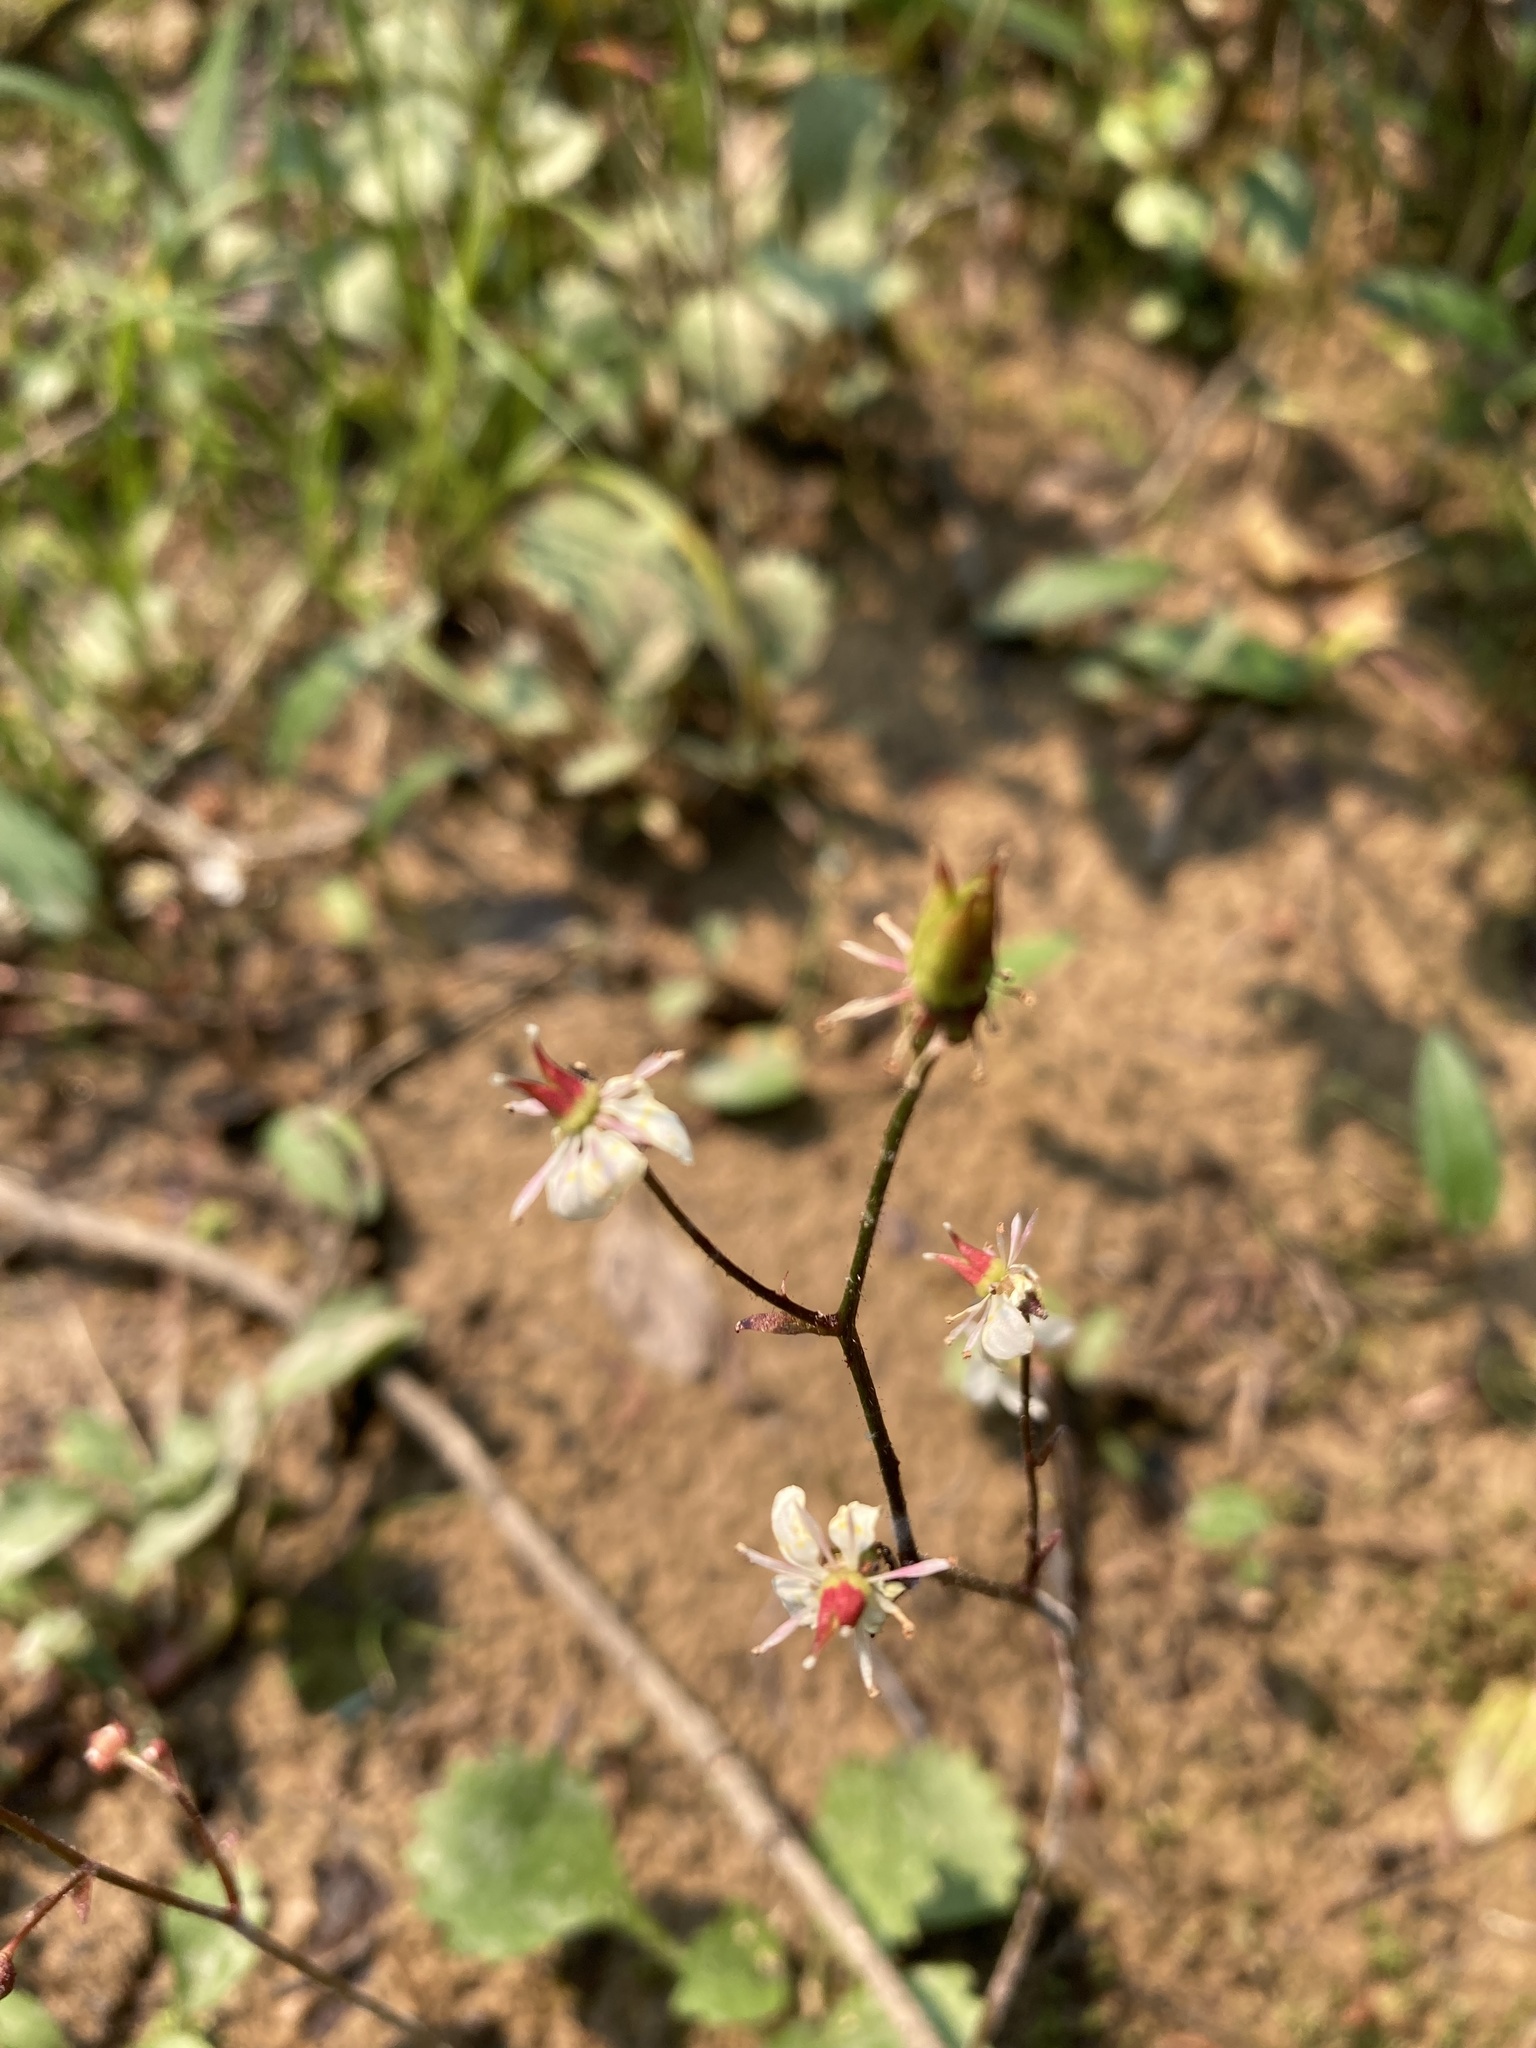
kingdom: Plantae
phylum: Tracheophyta
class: Magnoliopsida
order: Saxifragales
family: Saxifragaceae
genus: Micranthes
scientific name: Micranthes lyallii
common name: Lyall's saxifrage
